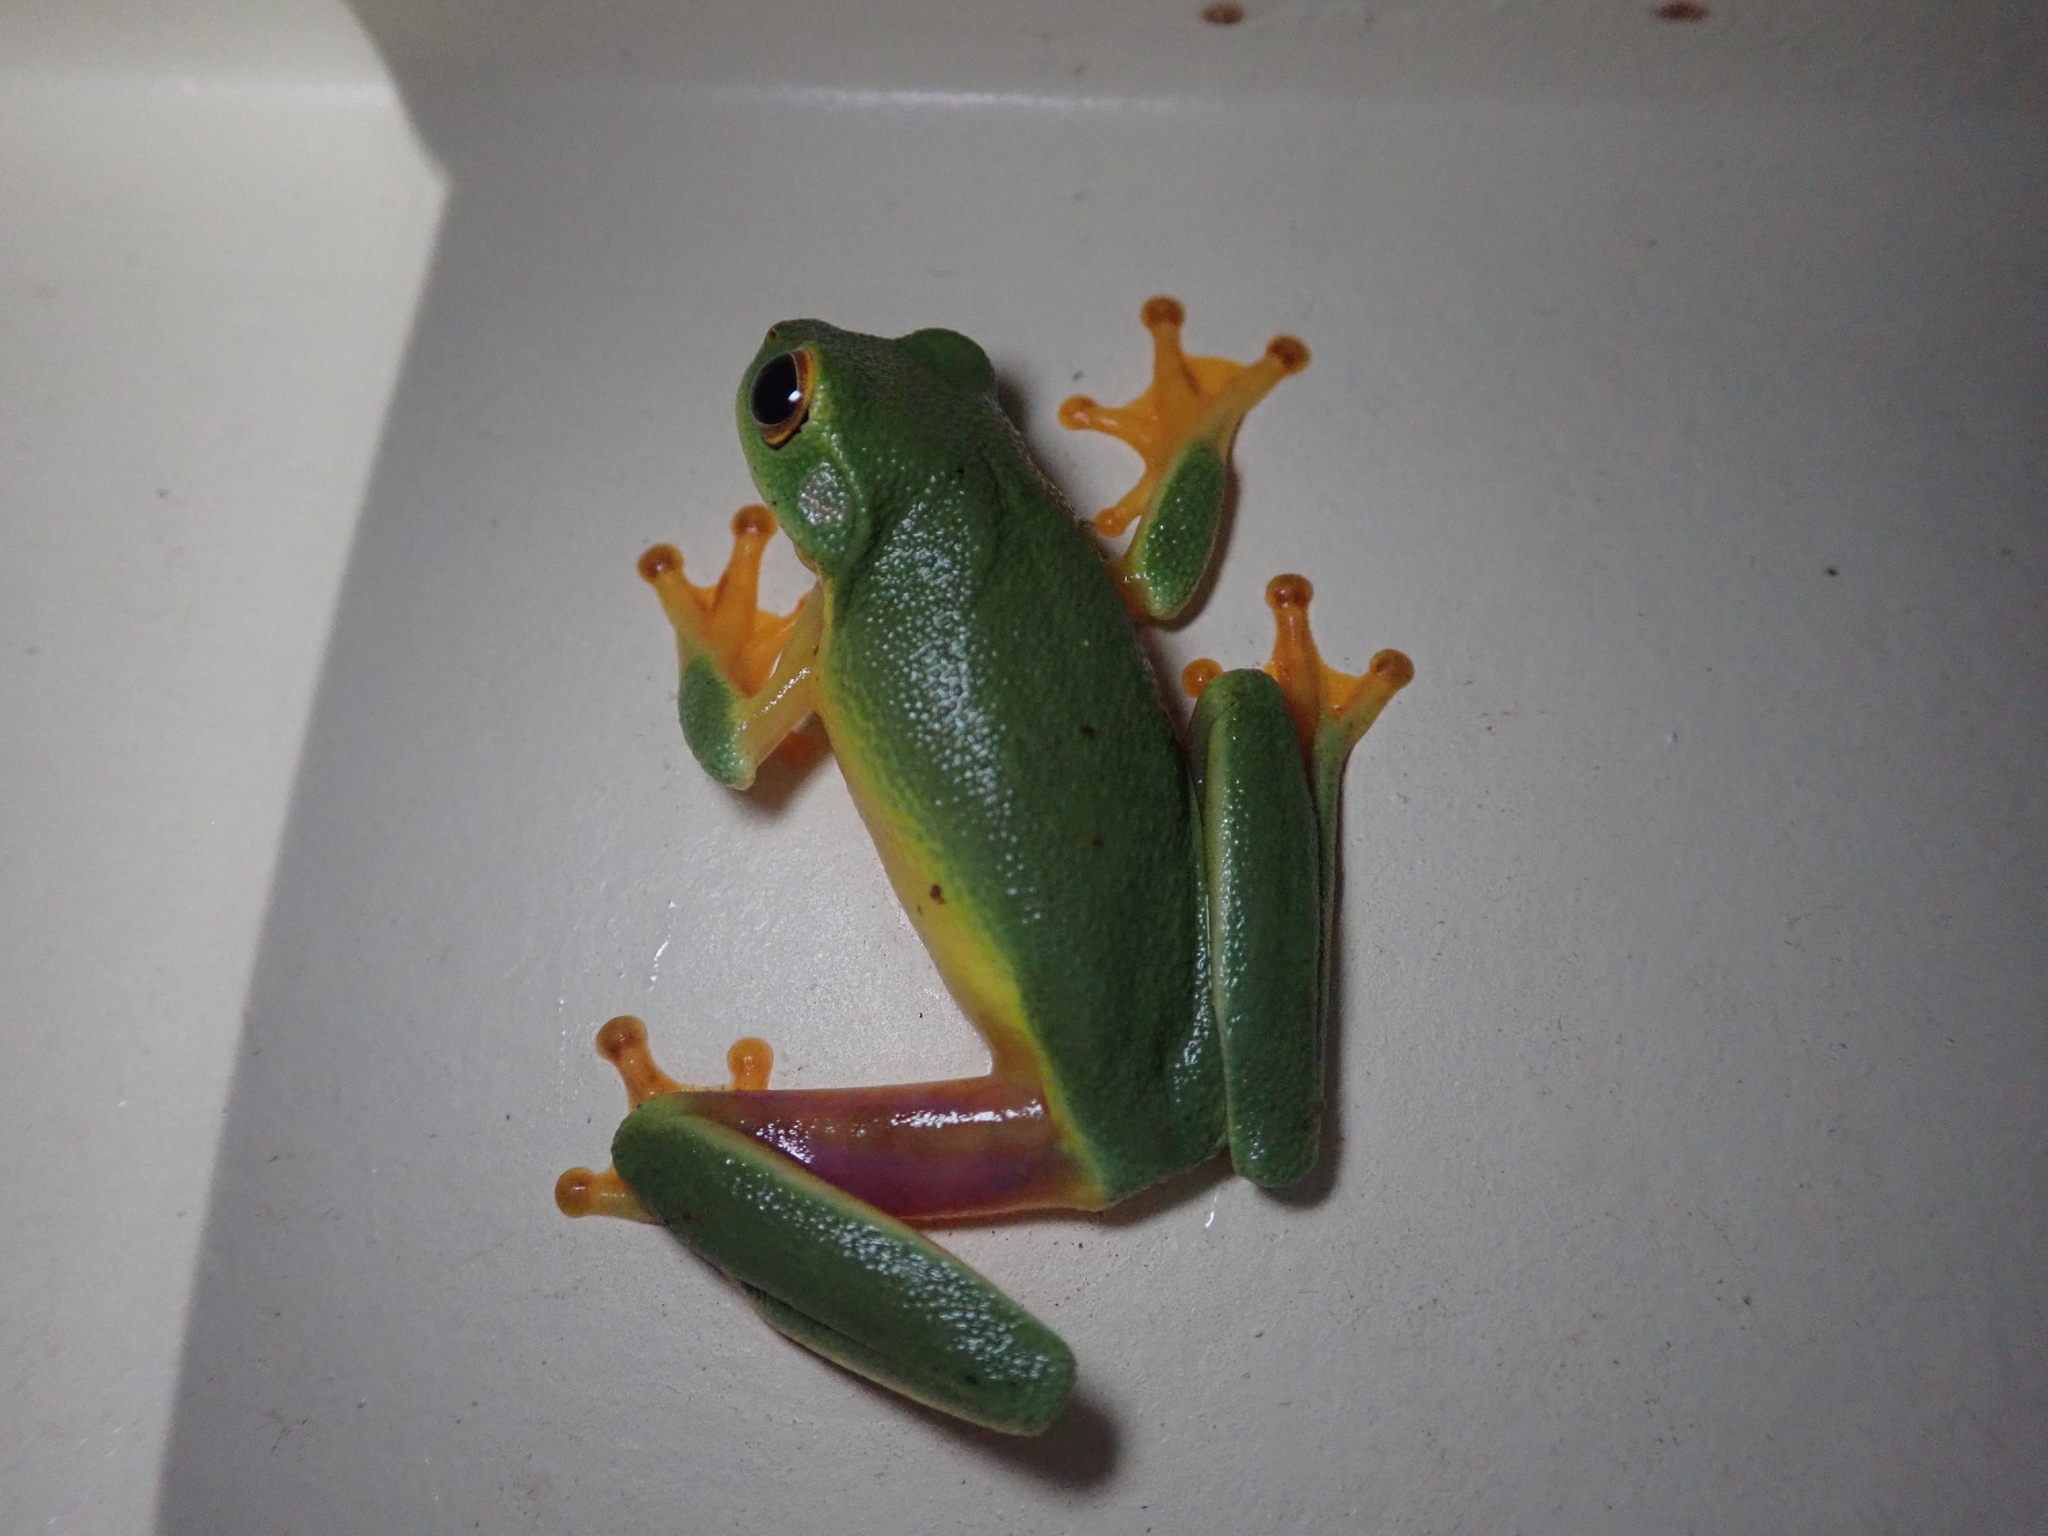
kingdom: Animalia
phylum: Chordata
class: Amphibia
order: Anura
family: Pelodryadidae
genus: Ranoidea
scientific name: Ranoidea bella
